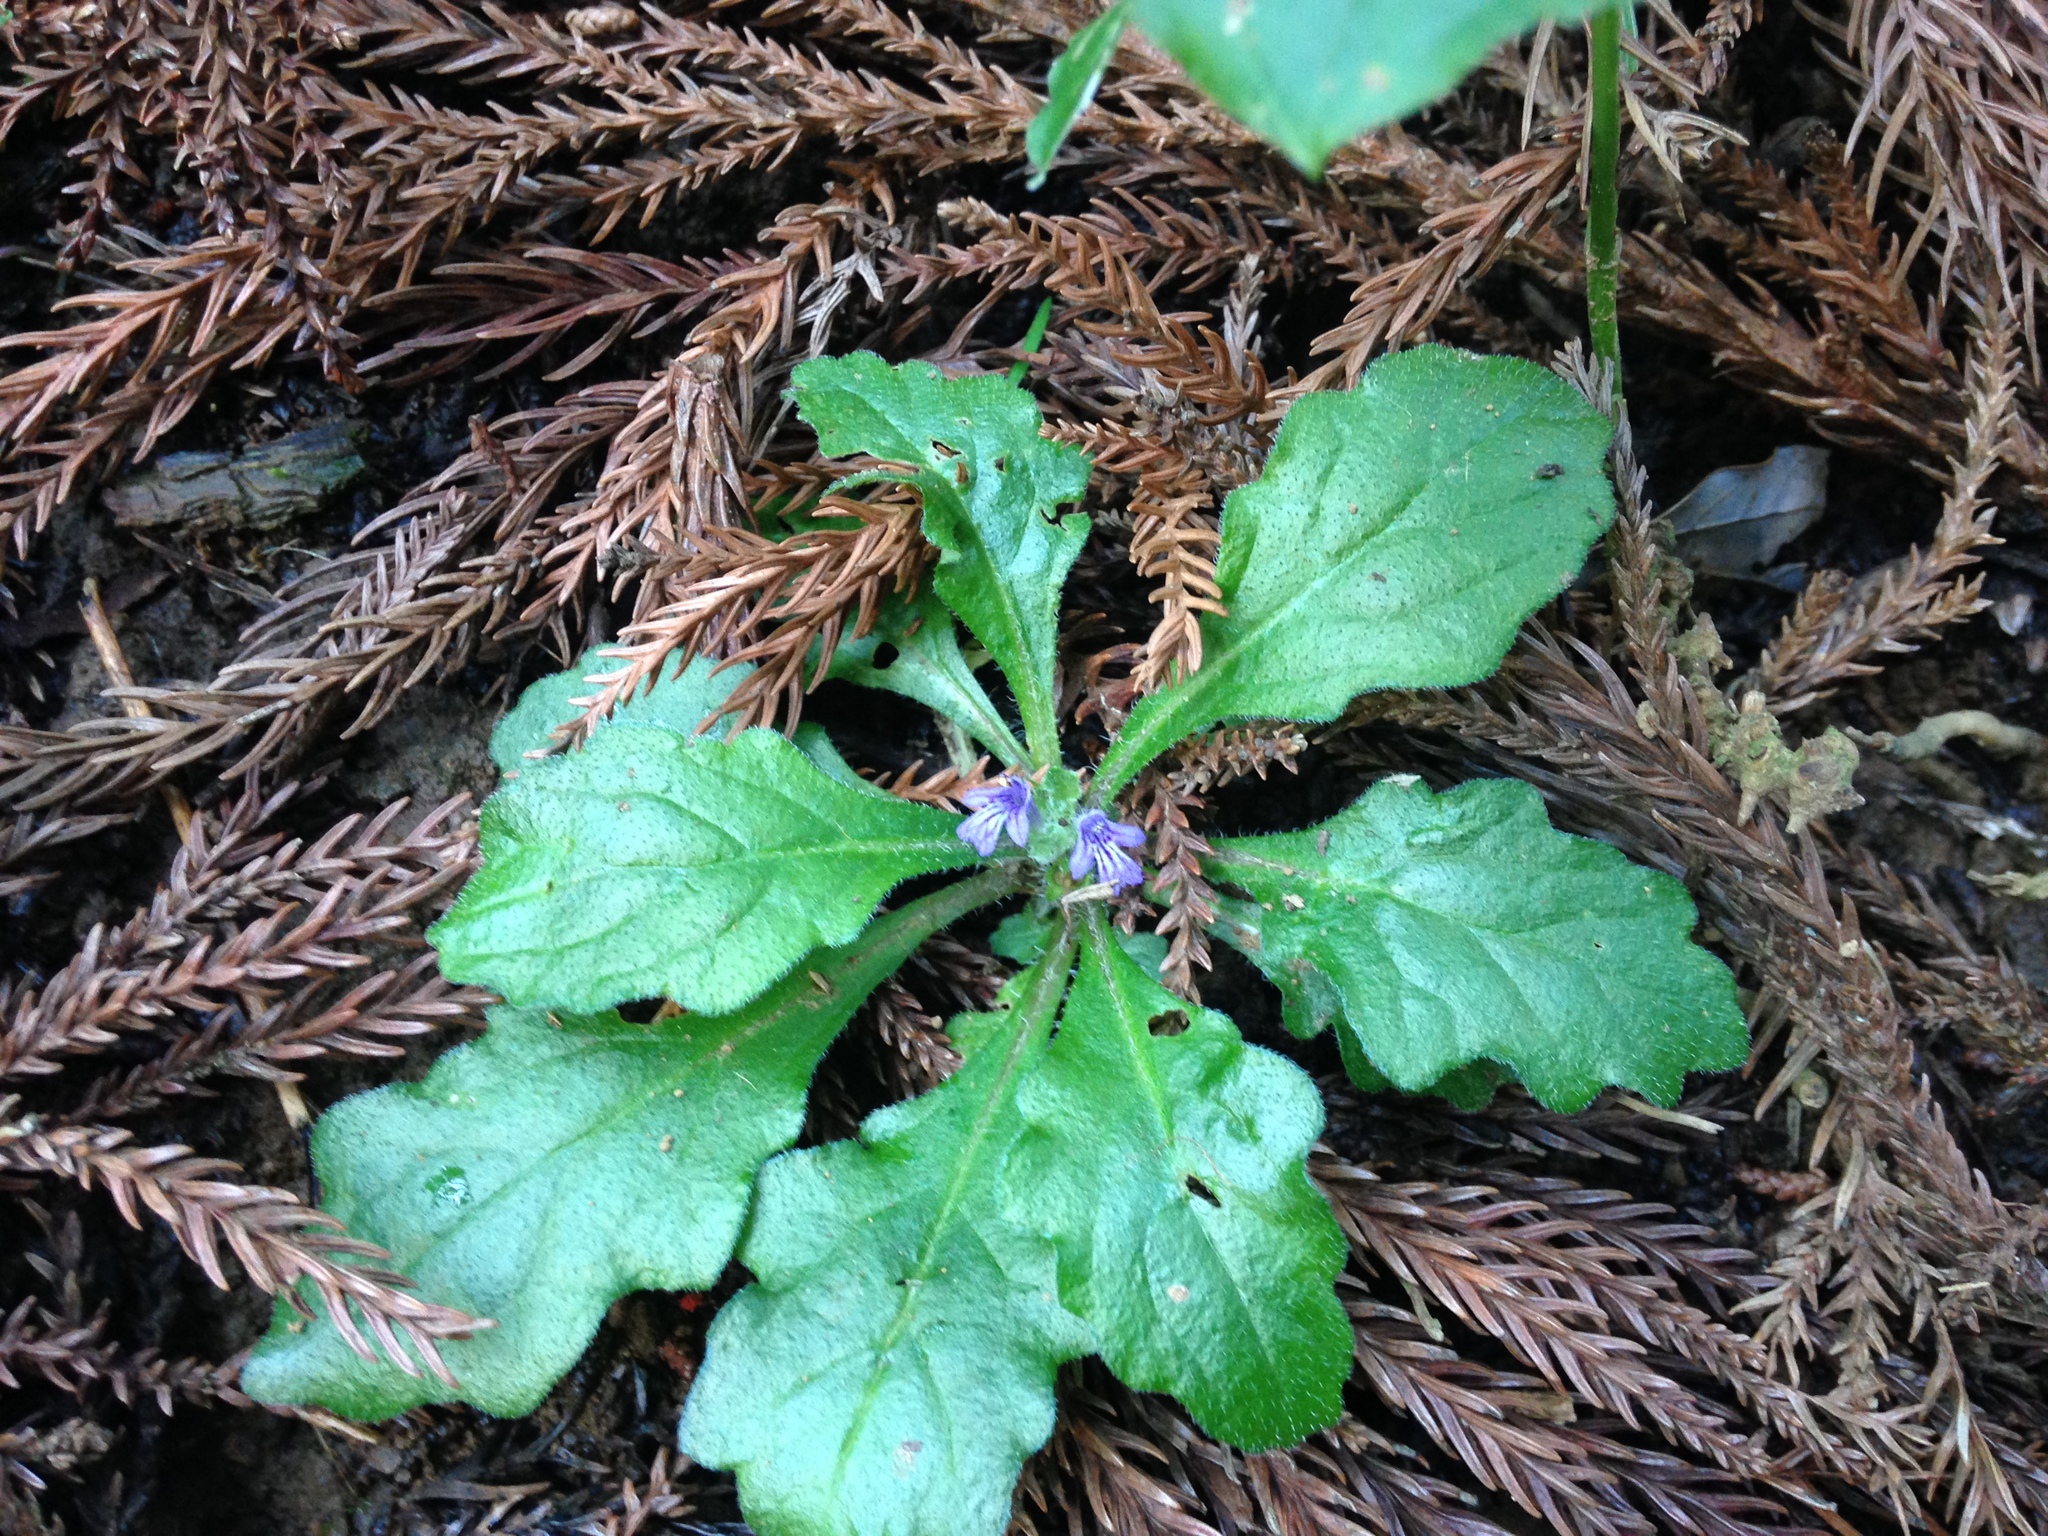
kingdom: Plantae
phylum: Tracheophyta
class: Magnoliopsida
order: Lamiales
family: Lamiaceae
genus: Ajuga
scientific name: Ajuga decumbens
